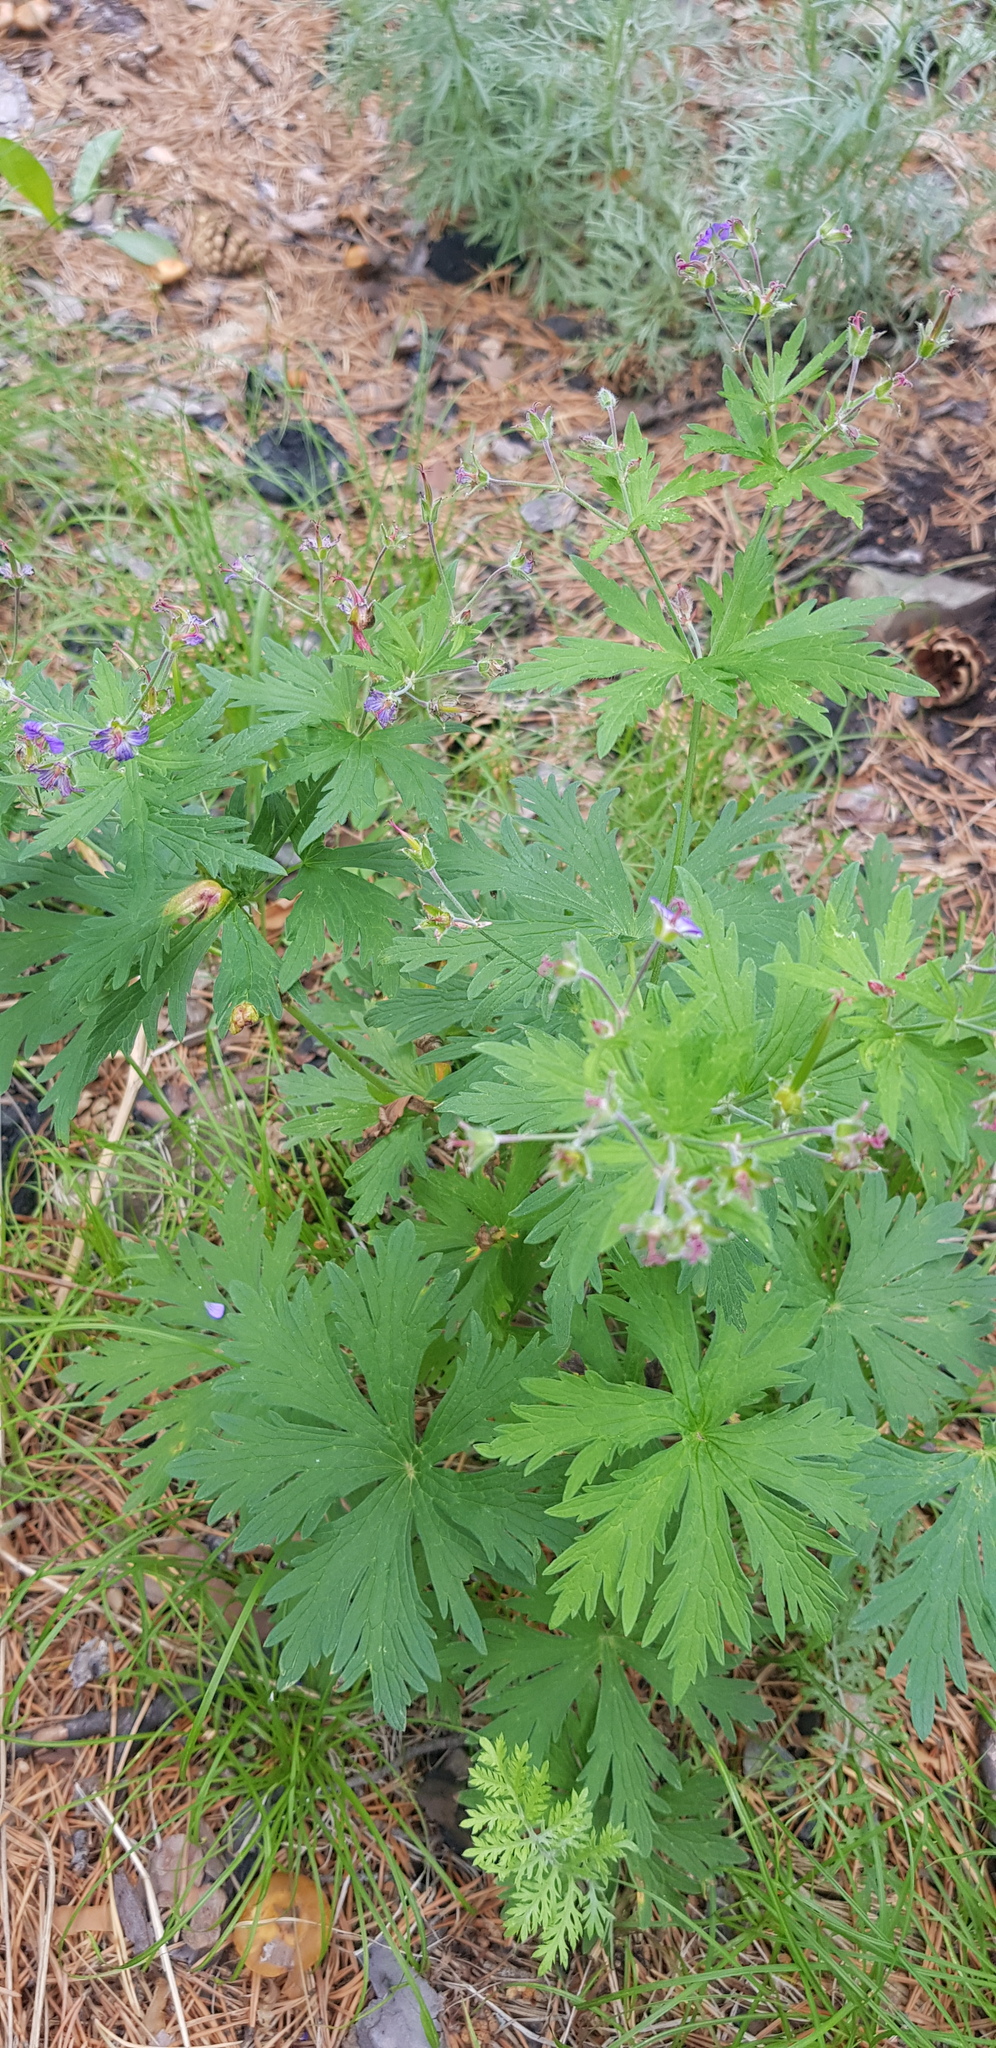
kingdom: Plantae
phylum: Tracheophyta
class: Magnoliopsida
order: Geraniales
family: Geraniaceae
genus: Geranium
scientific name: Geranium pseudosibiricum
